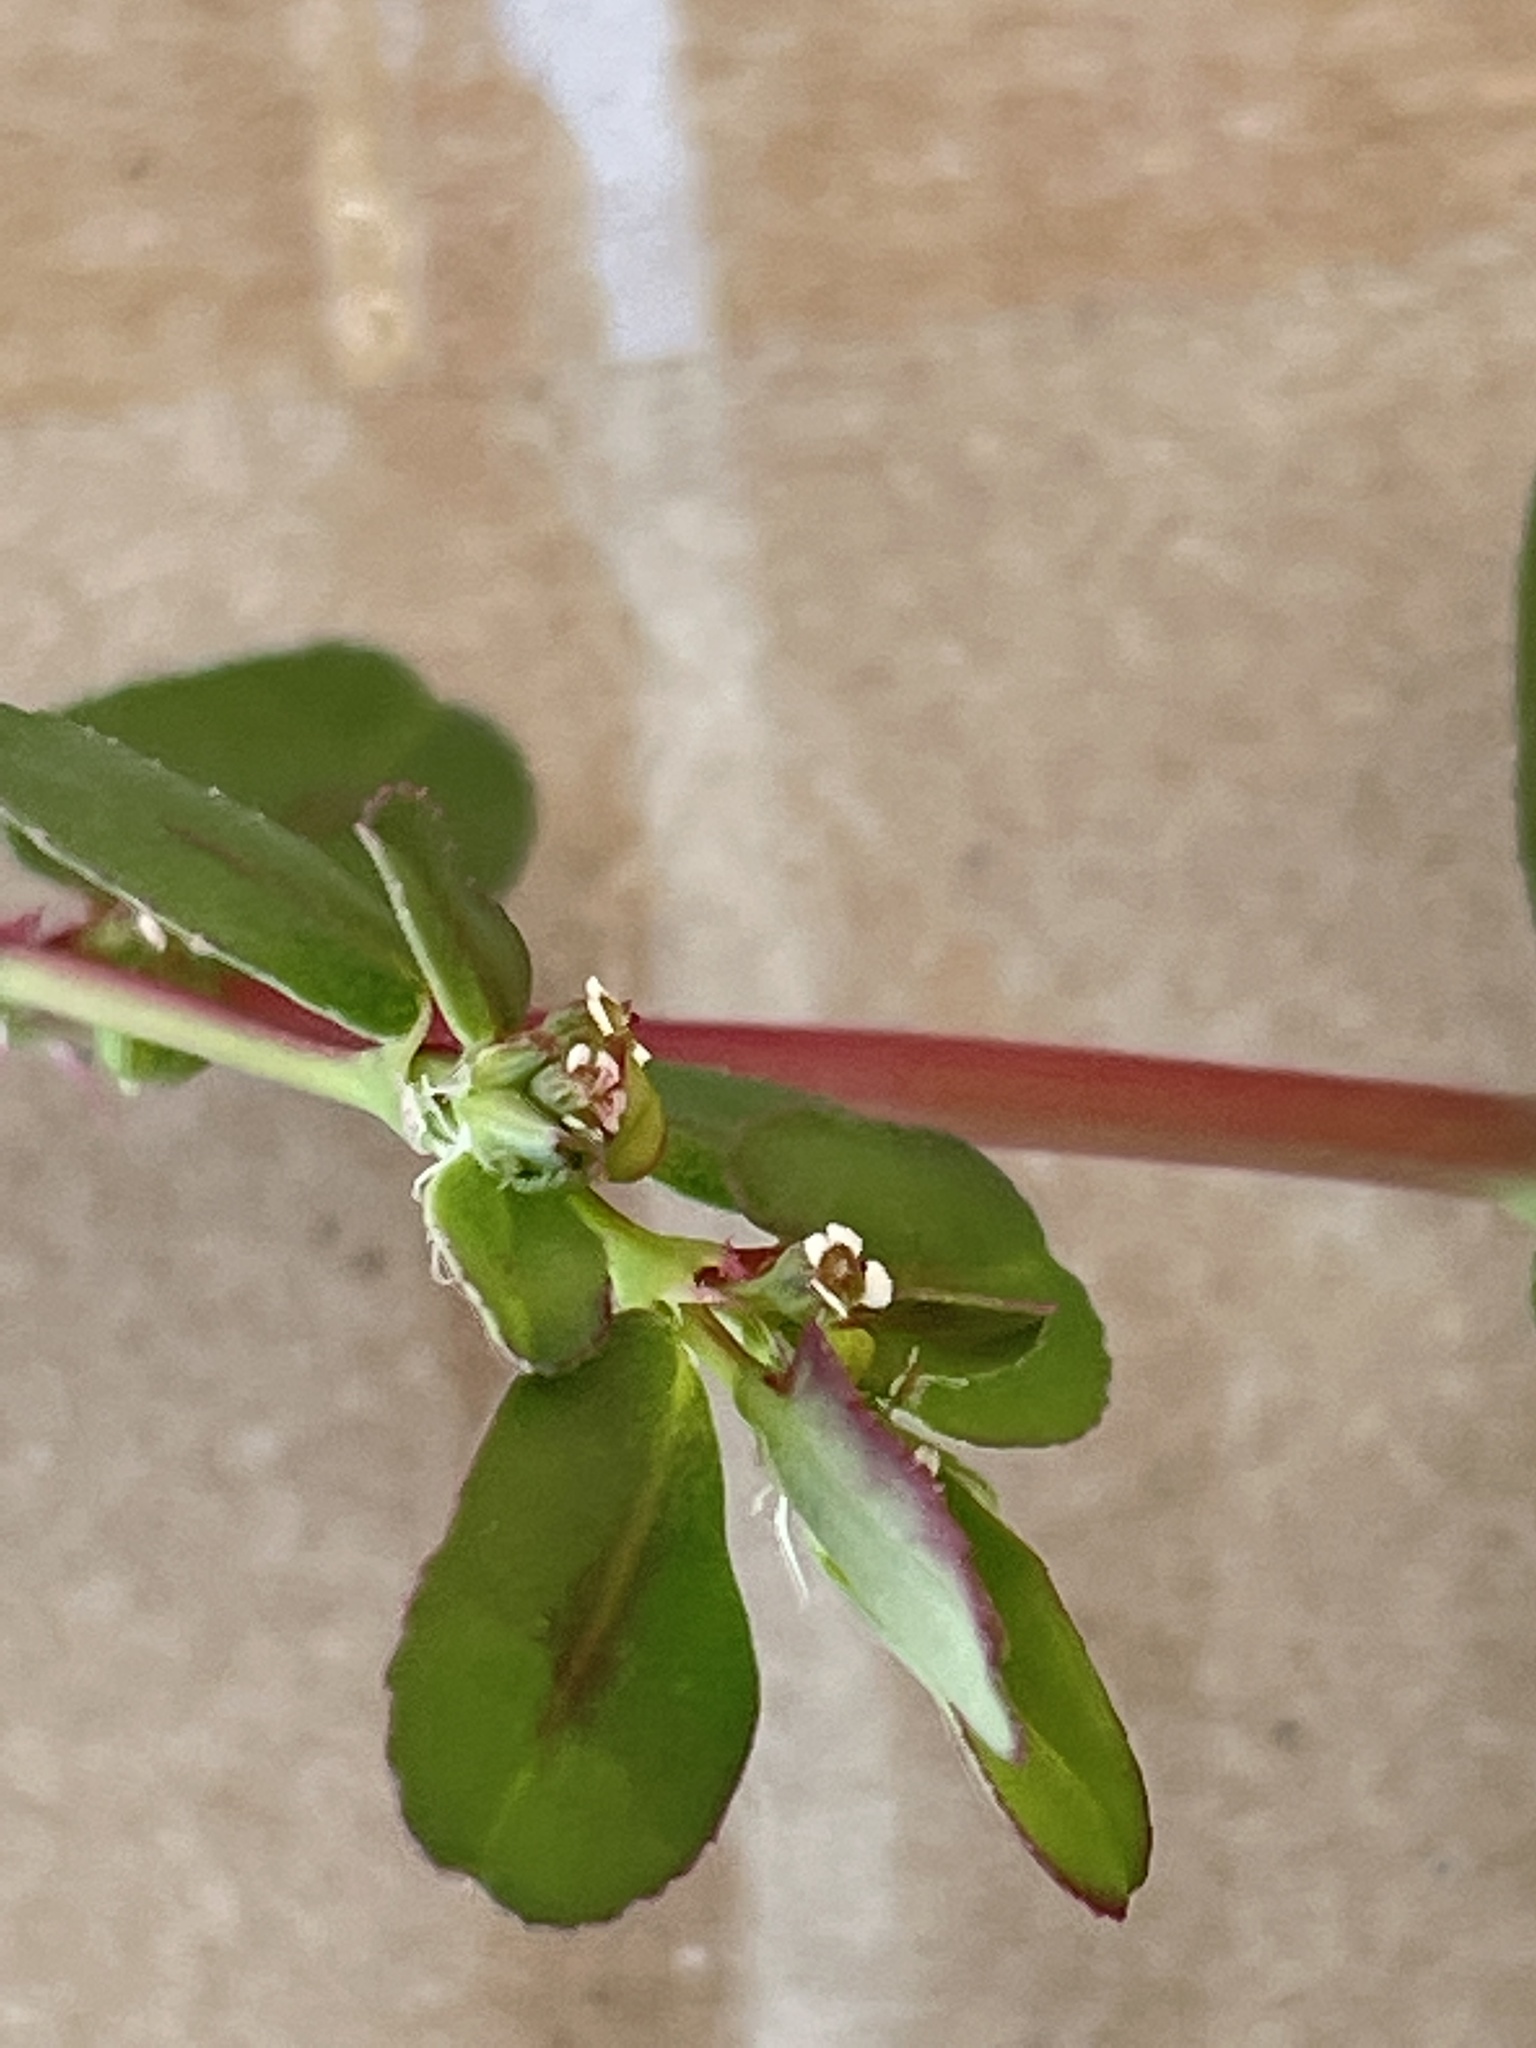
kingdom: Plantae
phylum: Tracheophyta
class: Magnoliopsida
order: Malpighiales
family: Euphorbiaceae
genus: Euphorbia
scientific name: Euphorbia serpillifolia
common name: Thyme-leaf spurge
